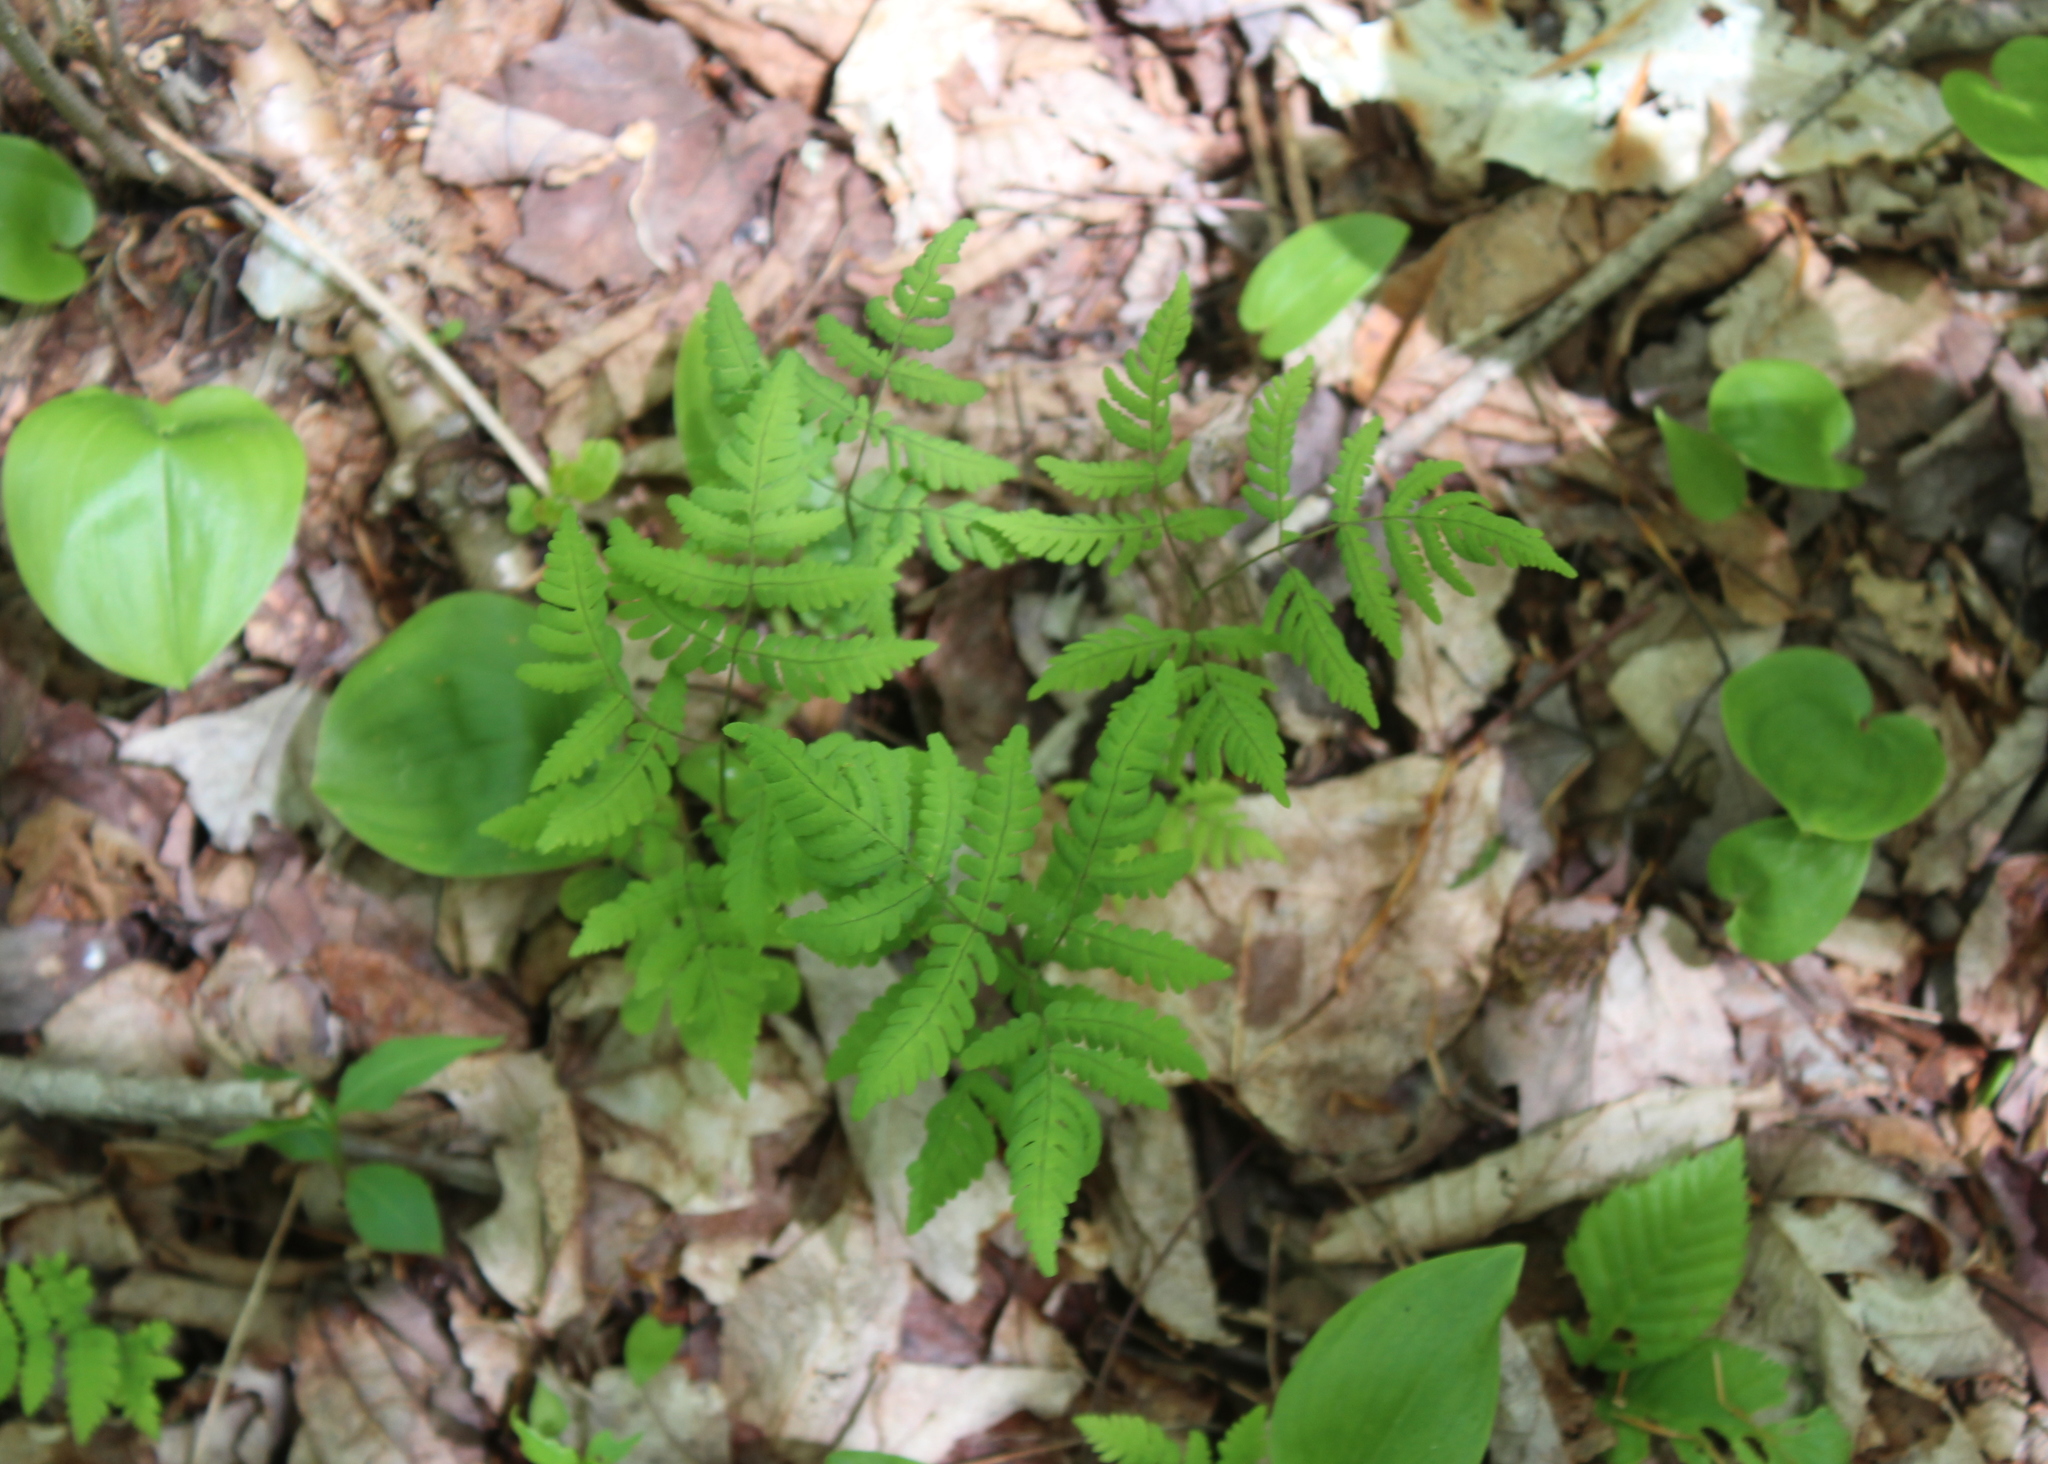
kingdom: Plantae
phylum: Tracheophyta
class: Polypodiopsida
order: Polypodiales
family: Cystopteridaceae
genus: Gymnocarpium
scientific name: Gymnocarpium dryopteris
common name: Oak fern
